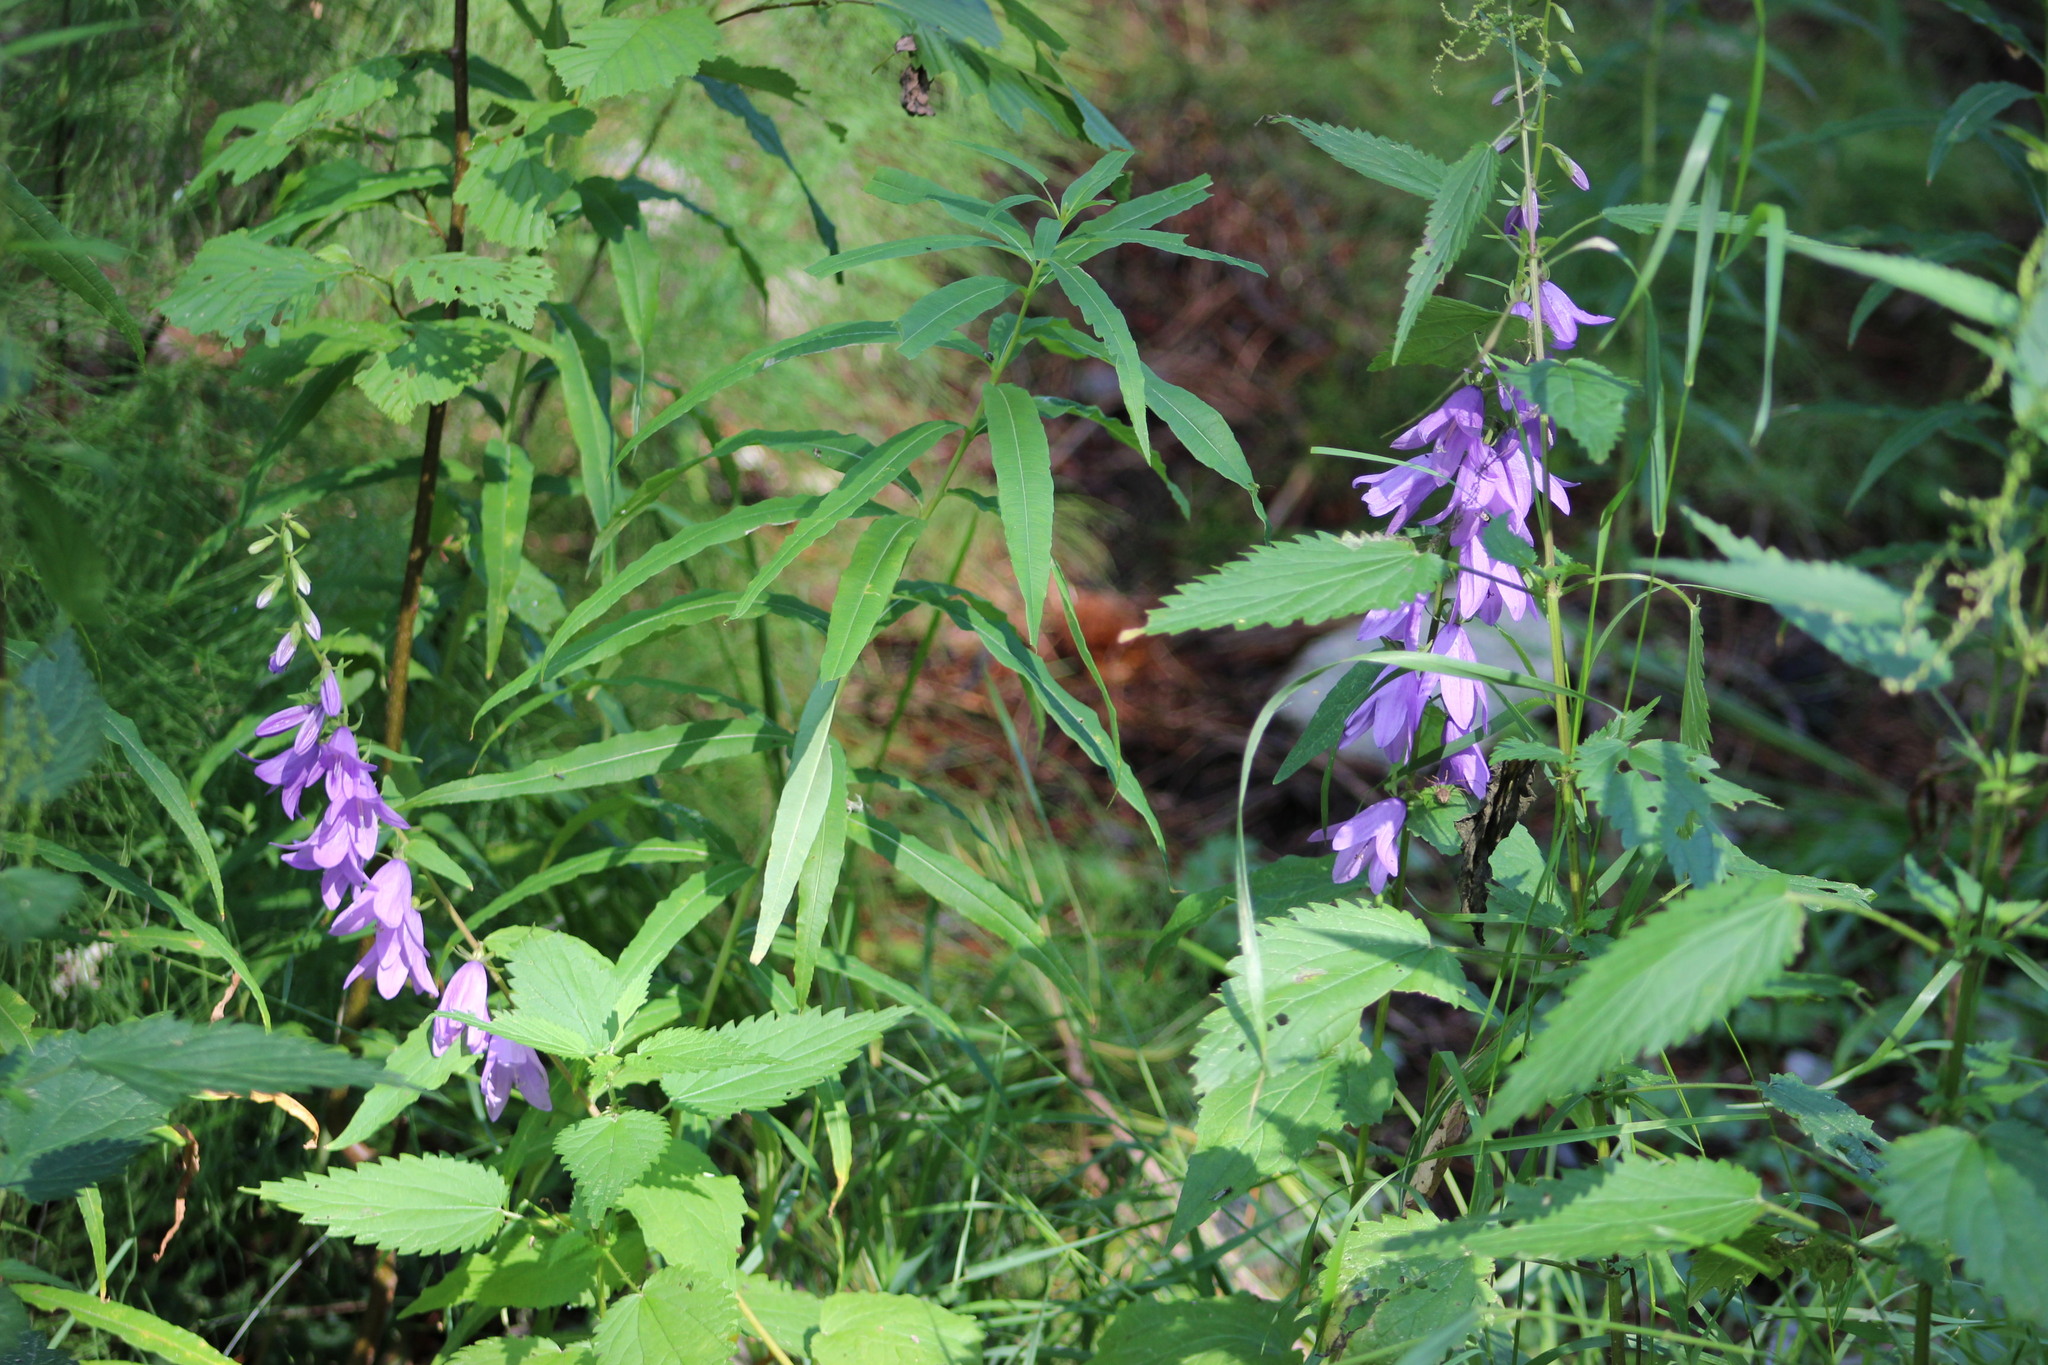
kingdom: Plantae
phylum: Tracheophyta
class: Magnoliopsida
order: Asterales
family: Campanulaceae
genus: Campanula
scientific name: Campanula rapunculoides
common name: Creeping bellflower
